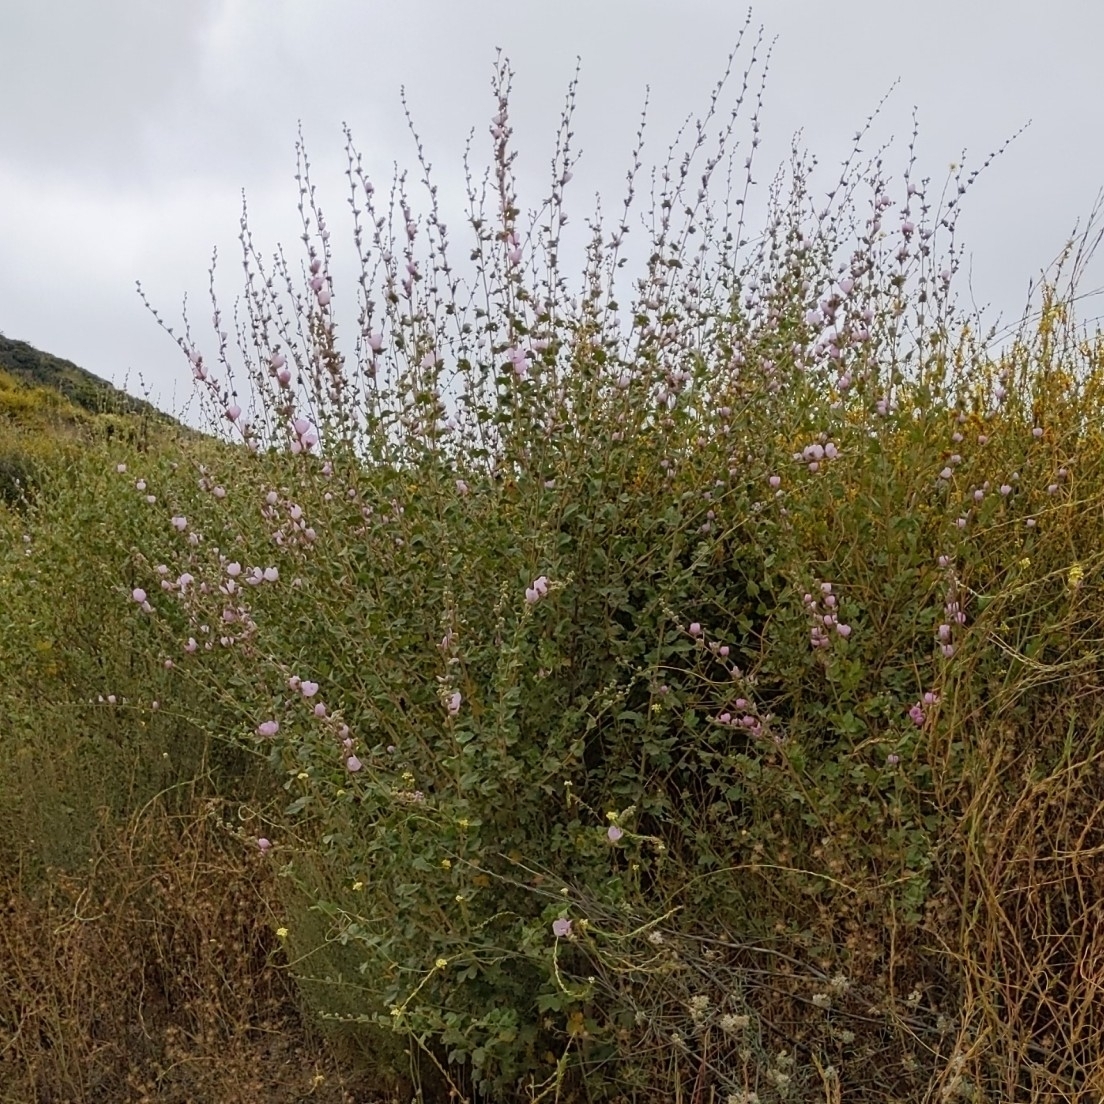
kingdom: Plantae
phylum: Tracheophyta
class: Magnoliopsida
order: Malvales
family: Malvaceae
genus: Malacothamnus
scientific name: Malacothamnus fasciculatus
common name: Sant cruz island bush-mallow
